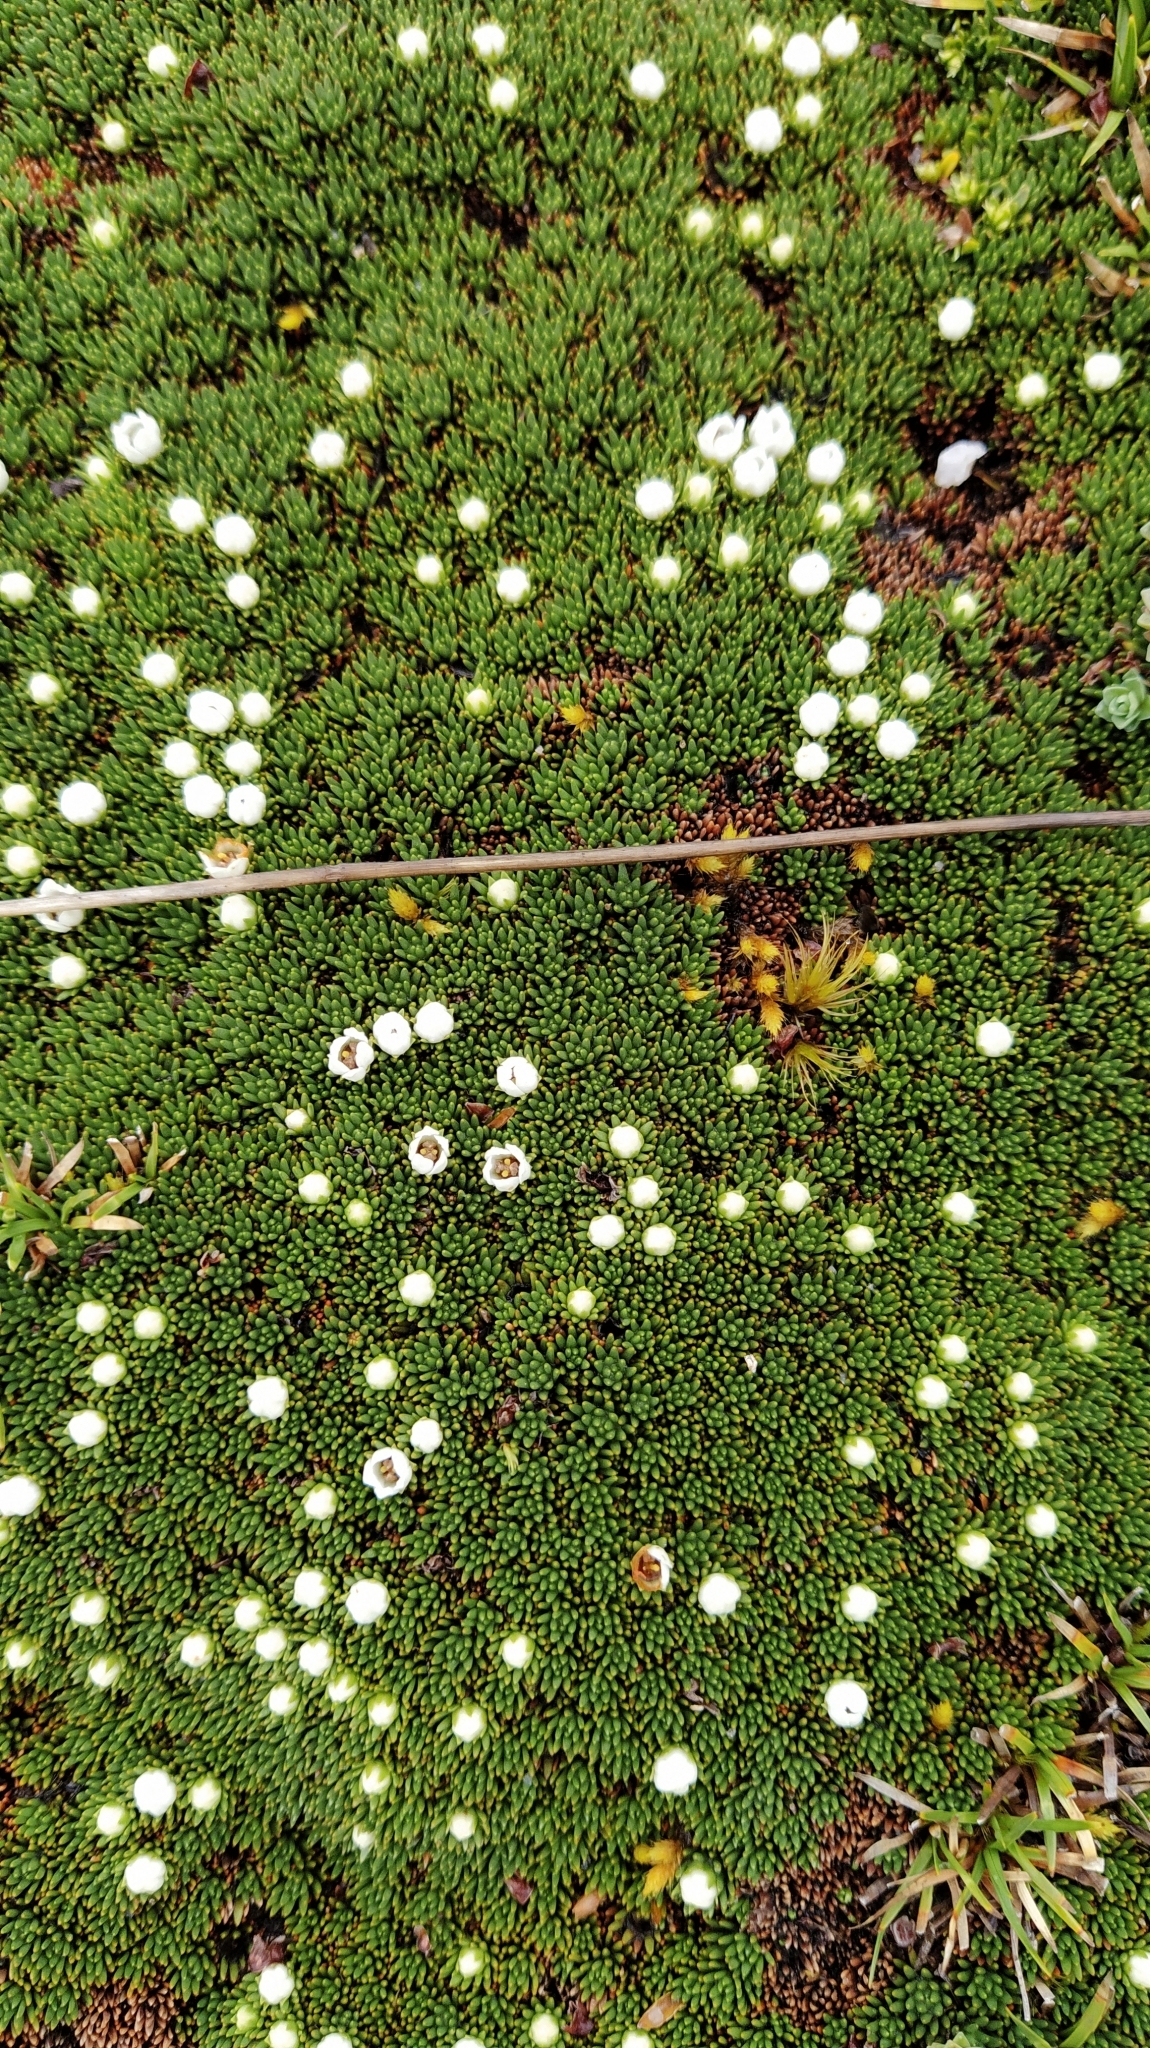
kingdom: Plantae
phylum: Tracheophyta
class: Magnoliopsida
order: Asterales
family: Stylidiaceae
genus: Donatia
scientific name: Donatia novae-zelandiae
